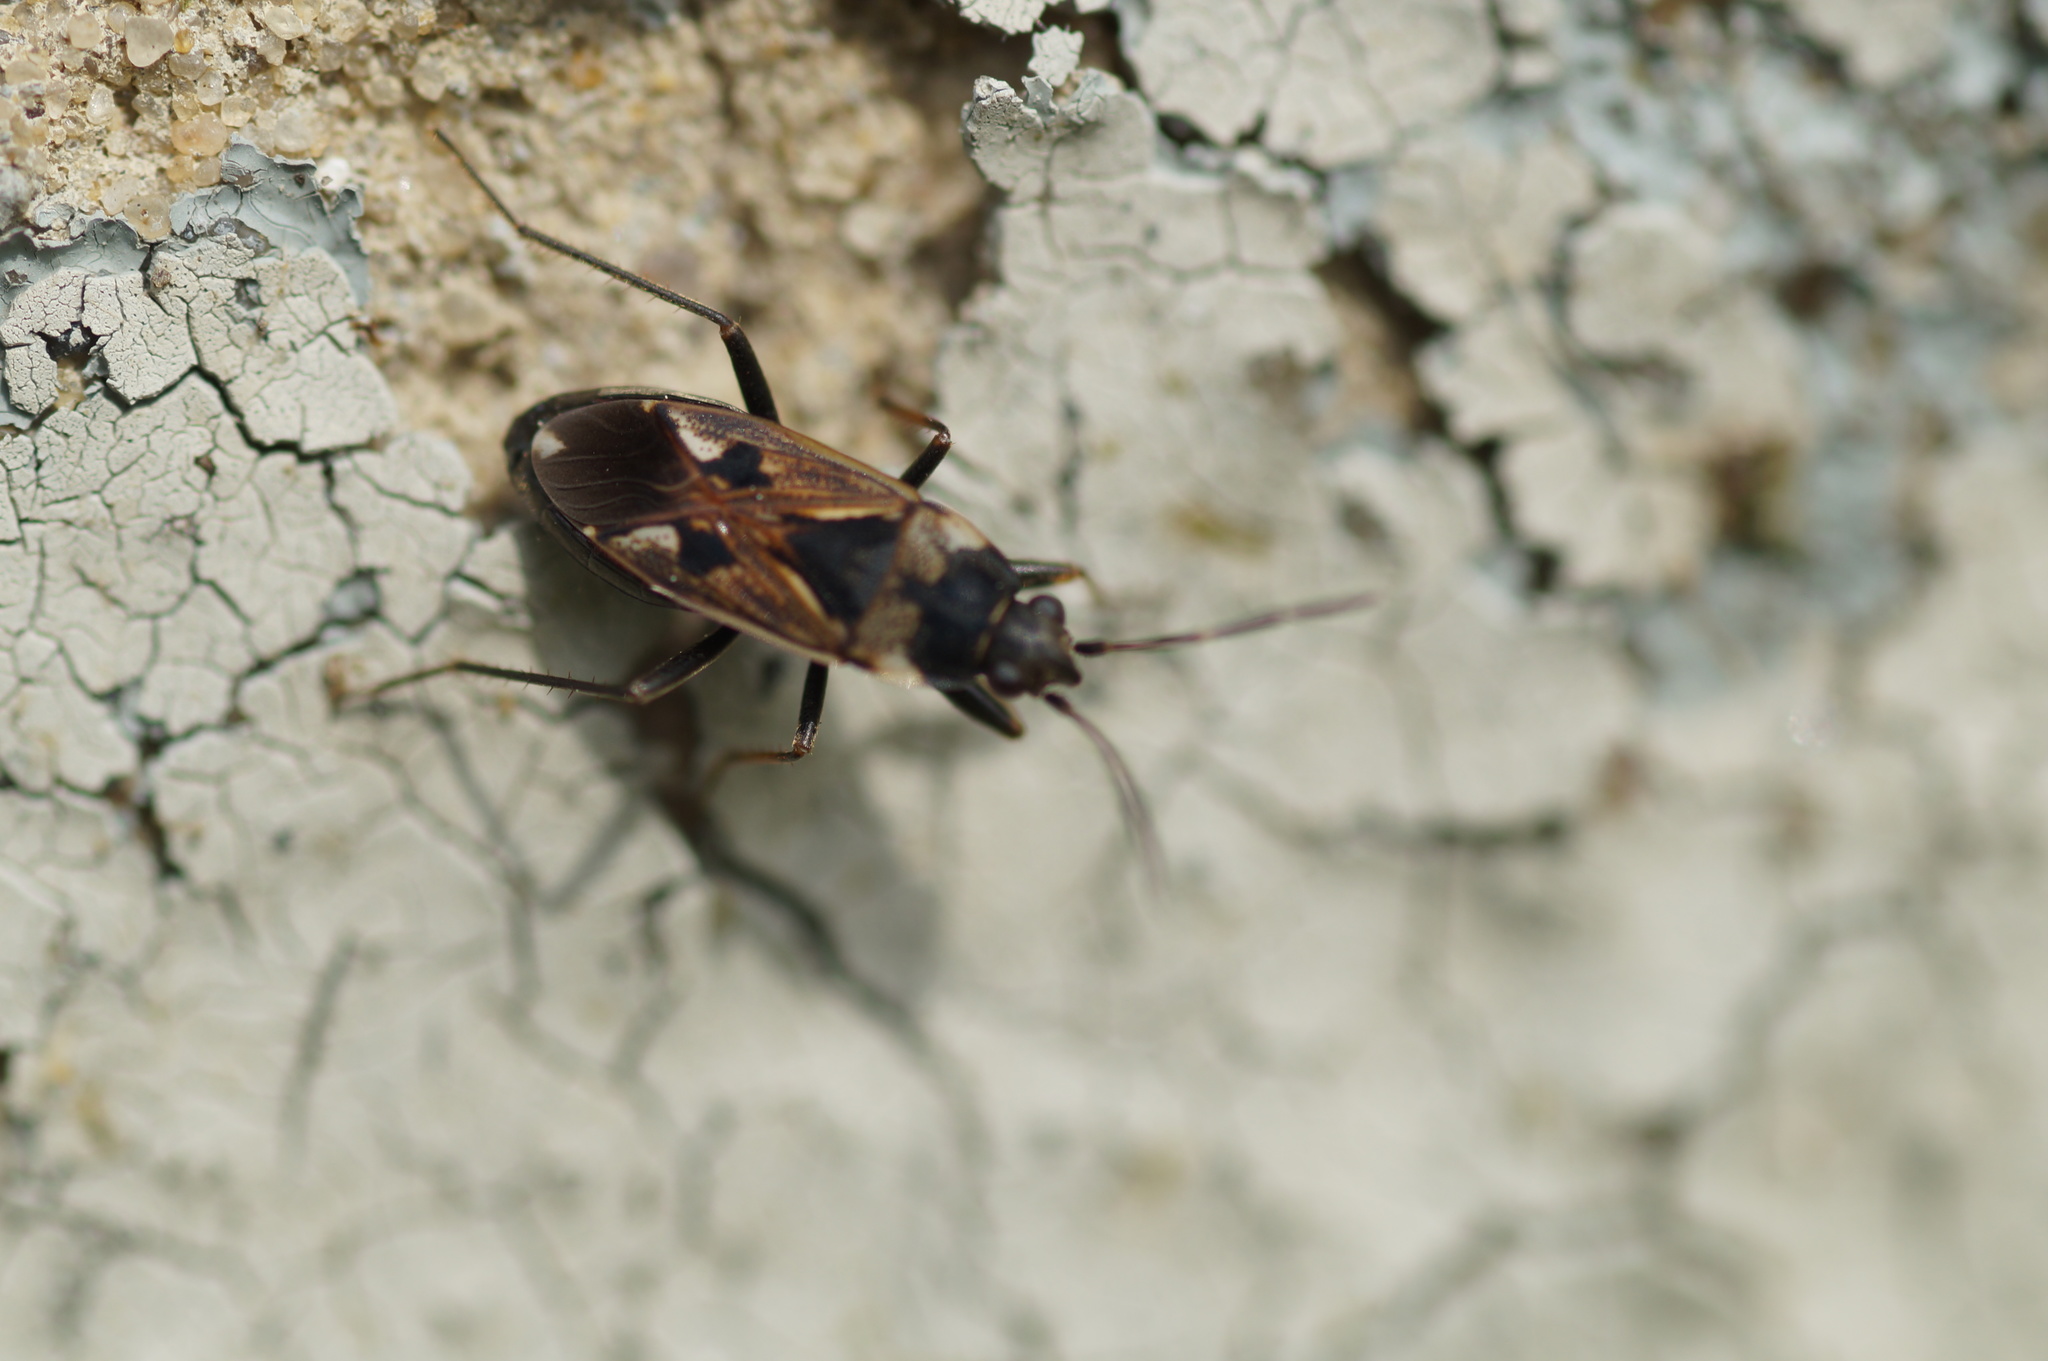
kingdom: Animalia
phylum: Arthropoda
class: Insecta
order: Hemiptera
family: Rhyparochromidae
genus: Rhyparochromus
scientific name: Rhyparochromus vulgaris
